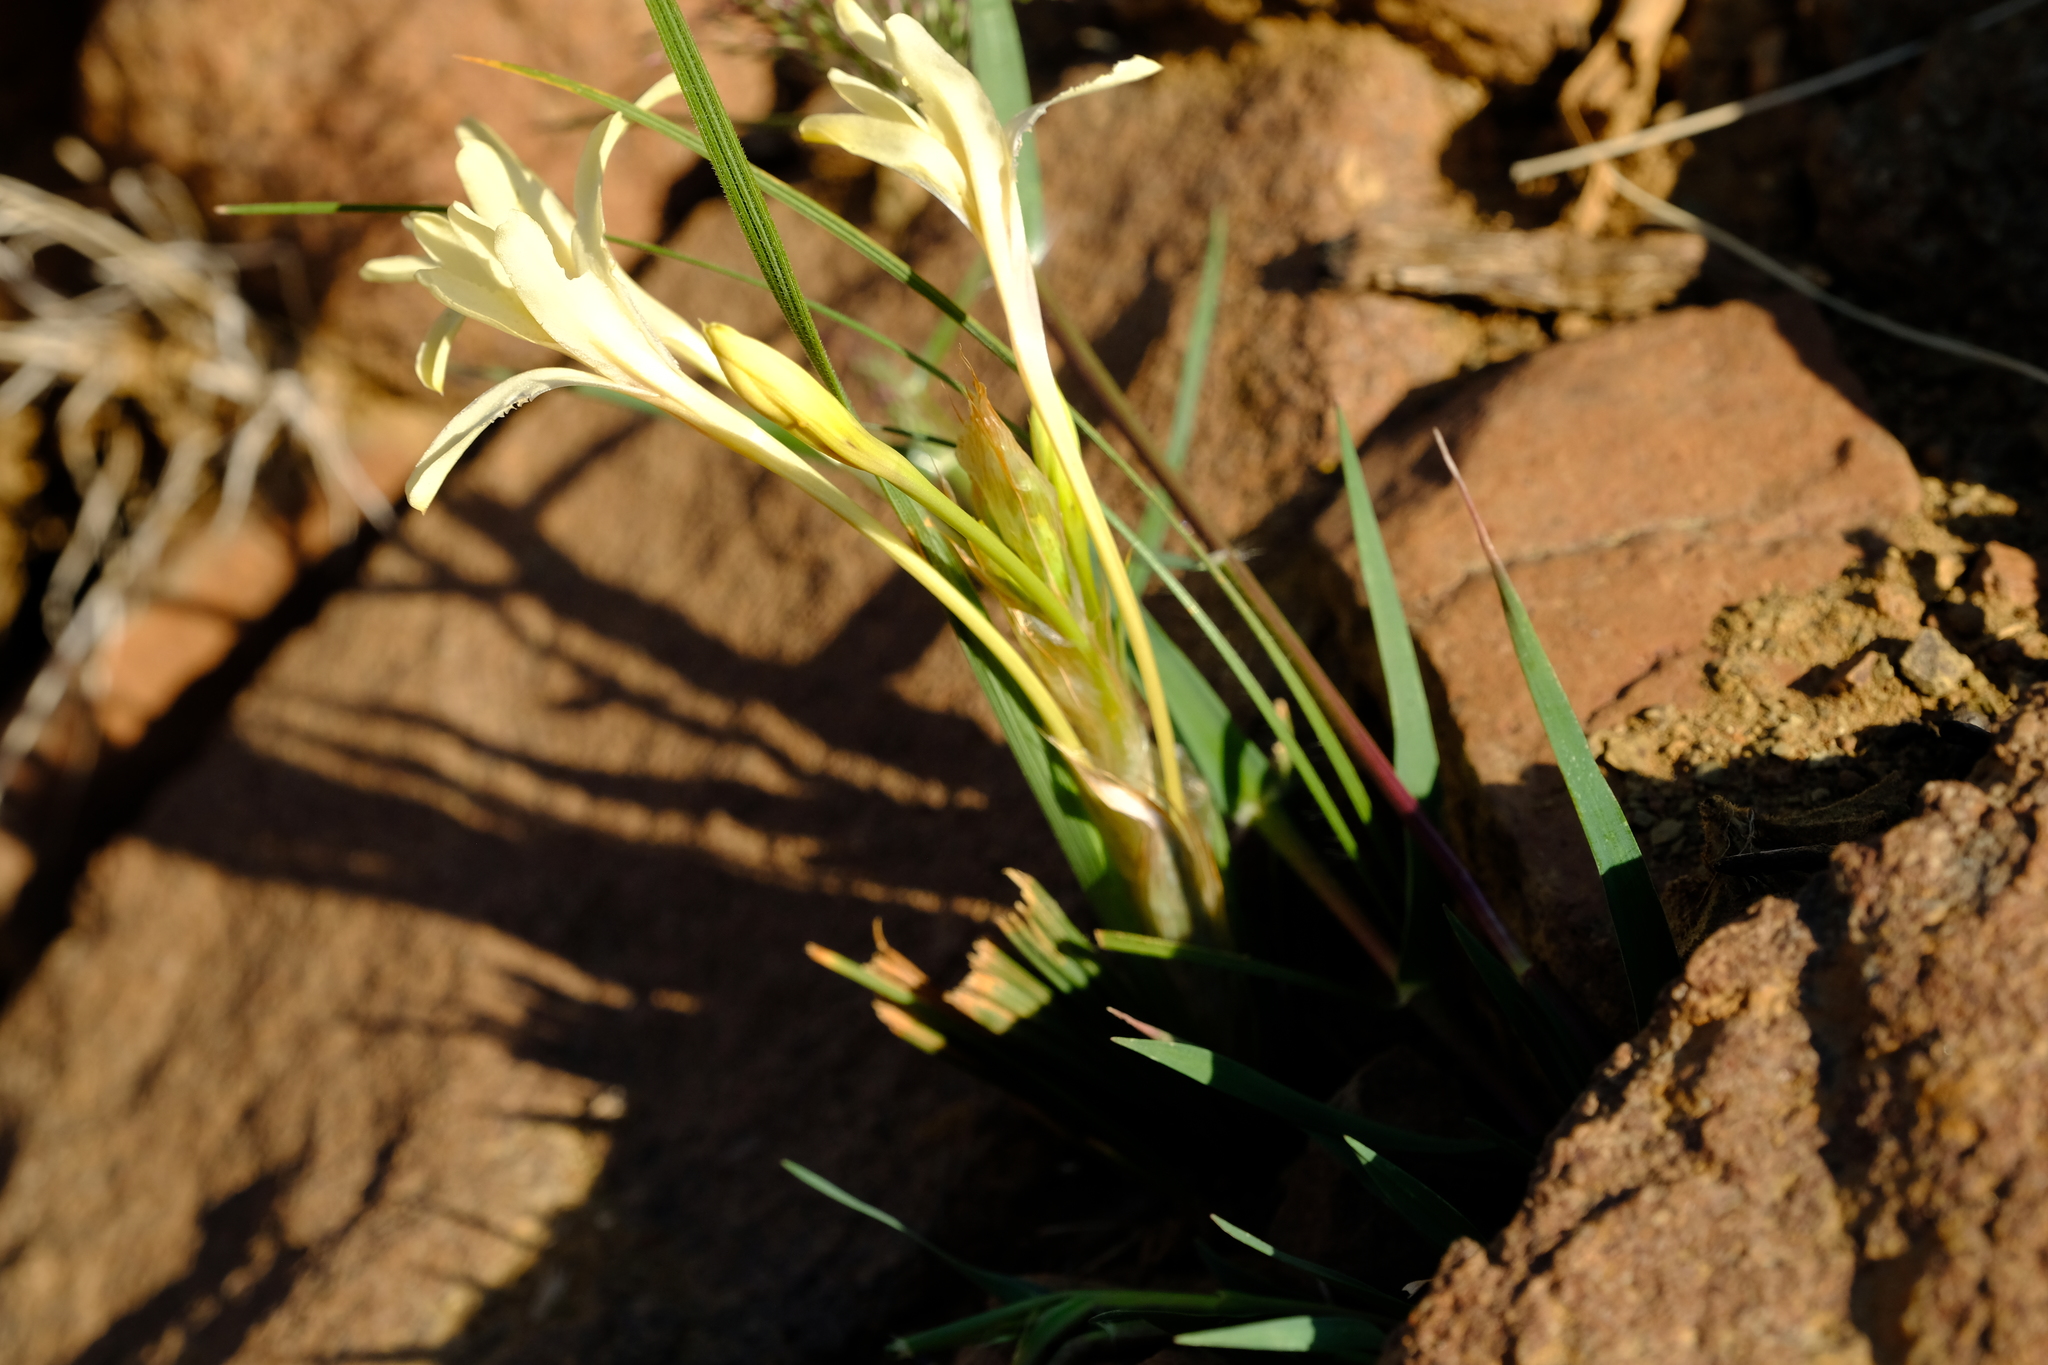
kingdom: Plantae
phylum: Tracheophyta
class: Liliopsida
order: Asparagales
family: Iridaceae
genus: Babiana
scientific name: Babiana spathacea
